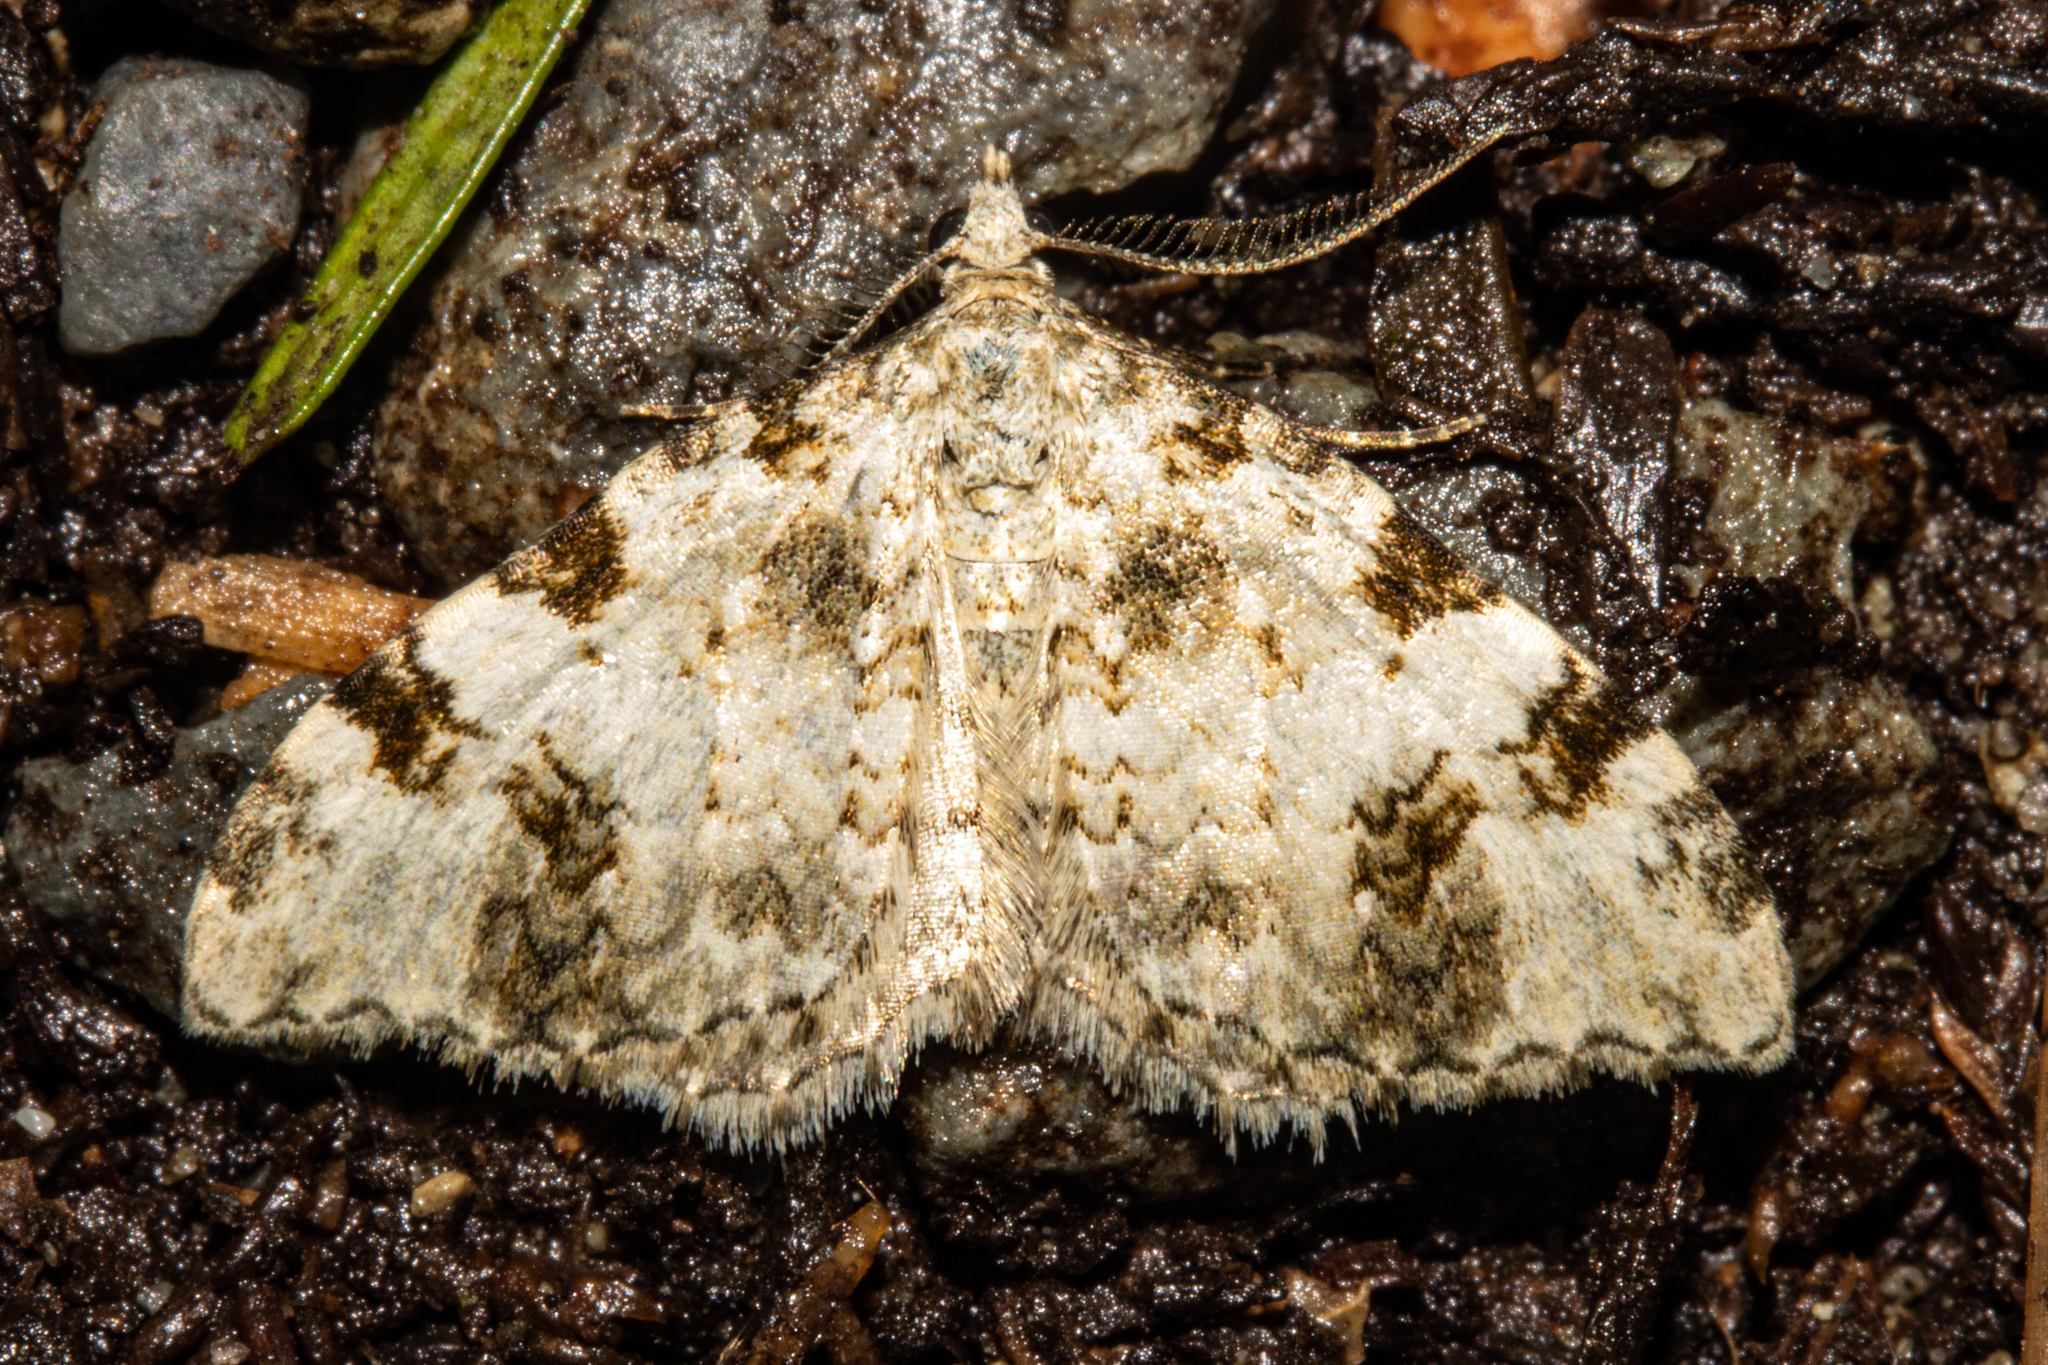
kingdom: Animalia
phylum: Arthropoda
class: Insecta
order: Lepidoptera
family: Geometridae
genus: Helastia
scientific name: Helastia alba
